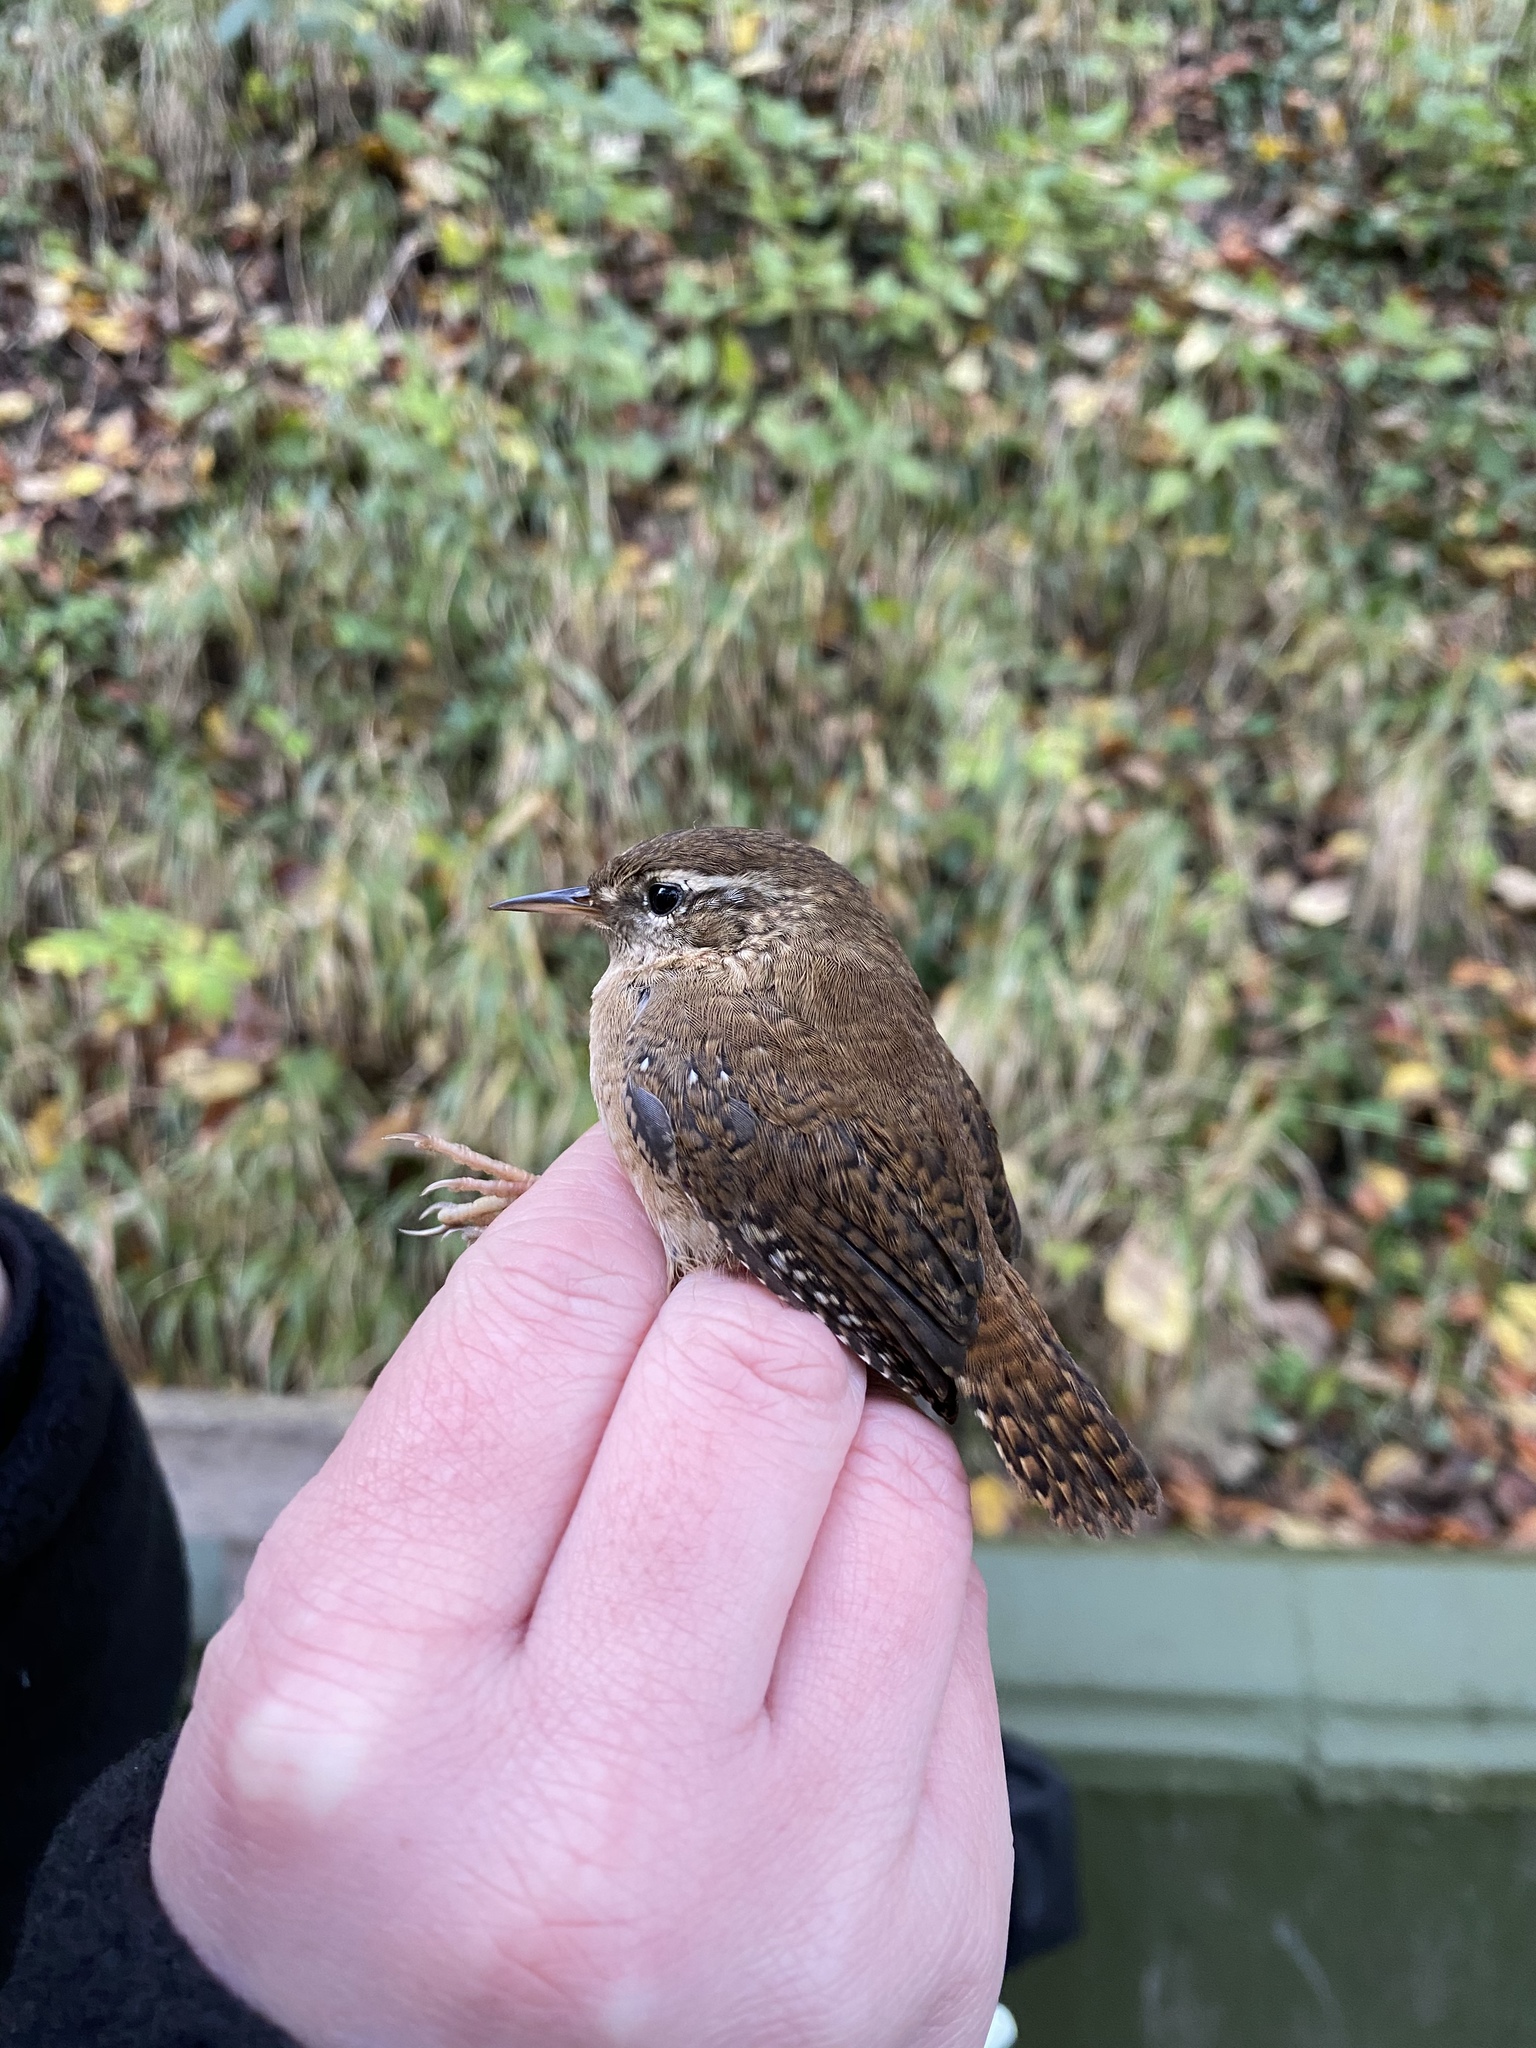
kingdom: Animalia
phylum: Chordata
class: Aves
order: Passeriformes
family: Troglodytidae
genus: Troglodytes
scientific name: Troglodytes troglodytes
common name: Eurasian wren
